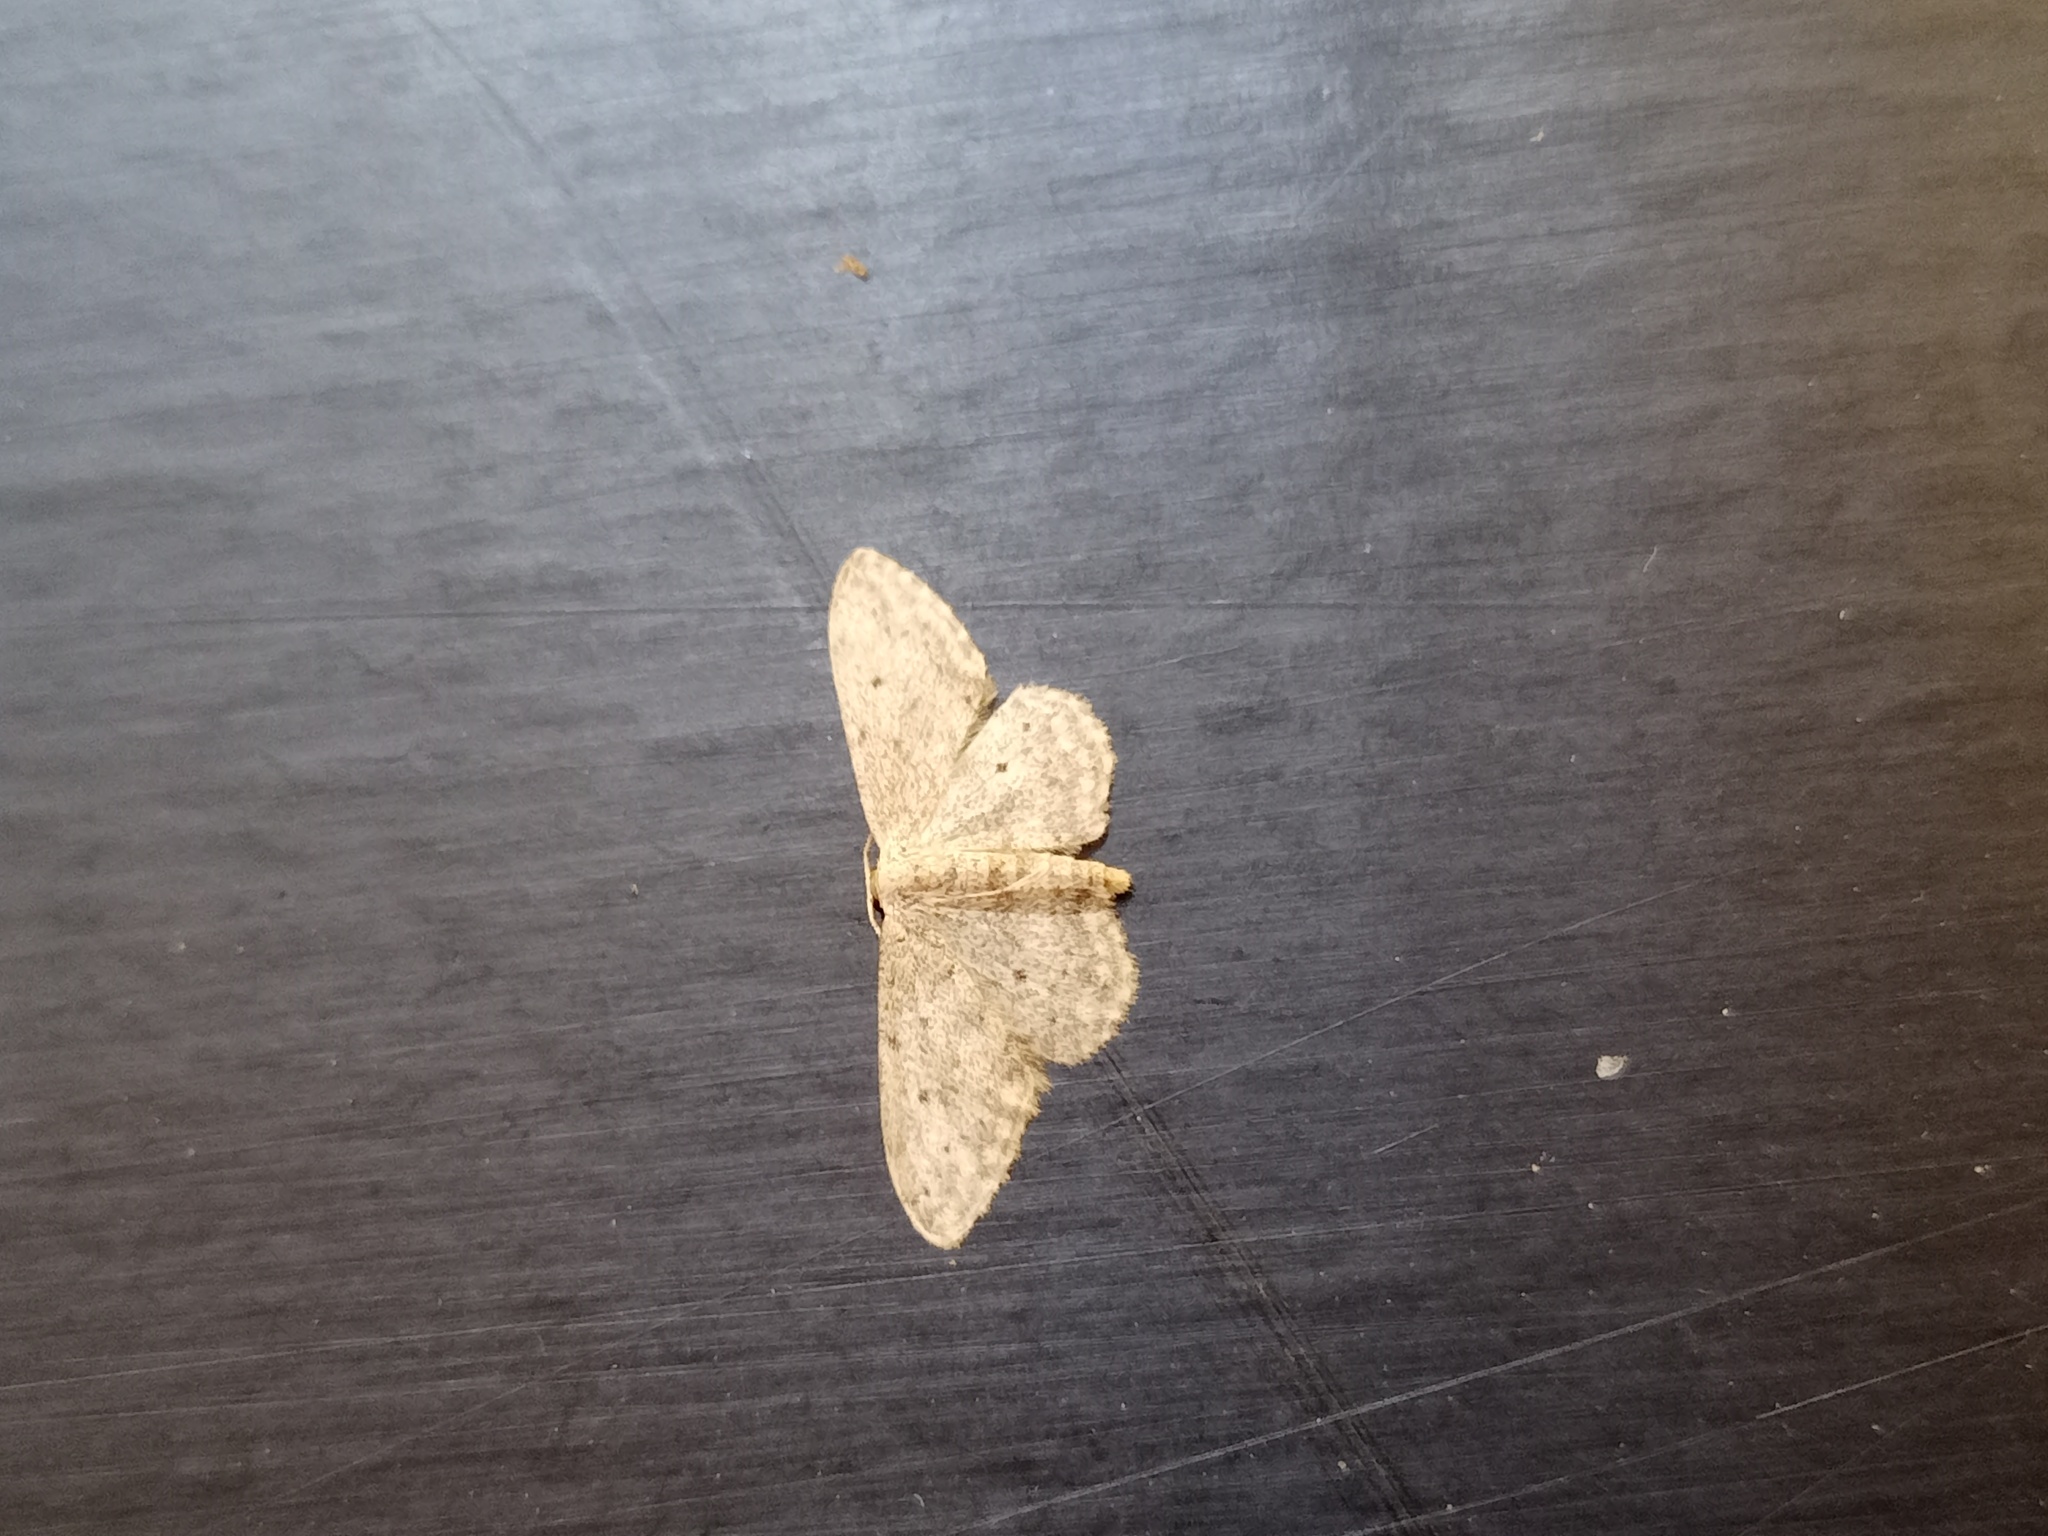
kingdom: Animalia
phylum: Arthropoda
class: Insecta
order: Lepidoptera
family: Geometridae
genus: Idaea
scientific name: Idaea seriata
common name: Small dusty wave
